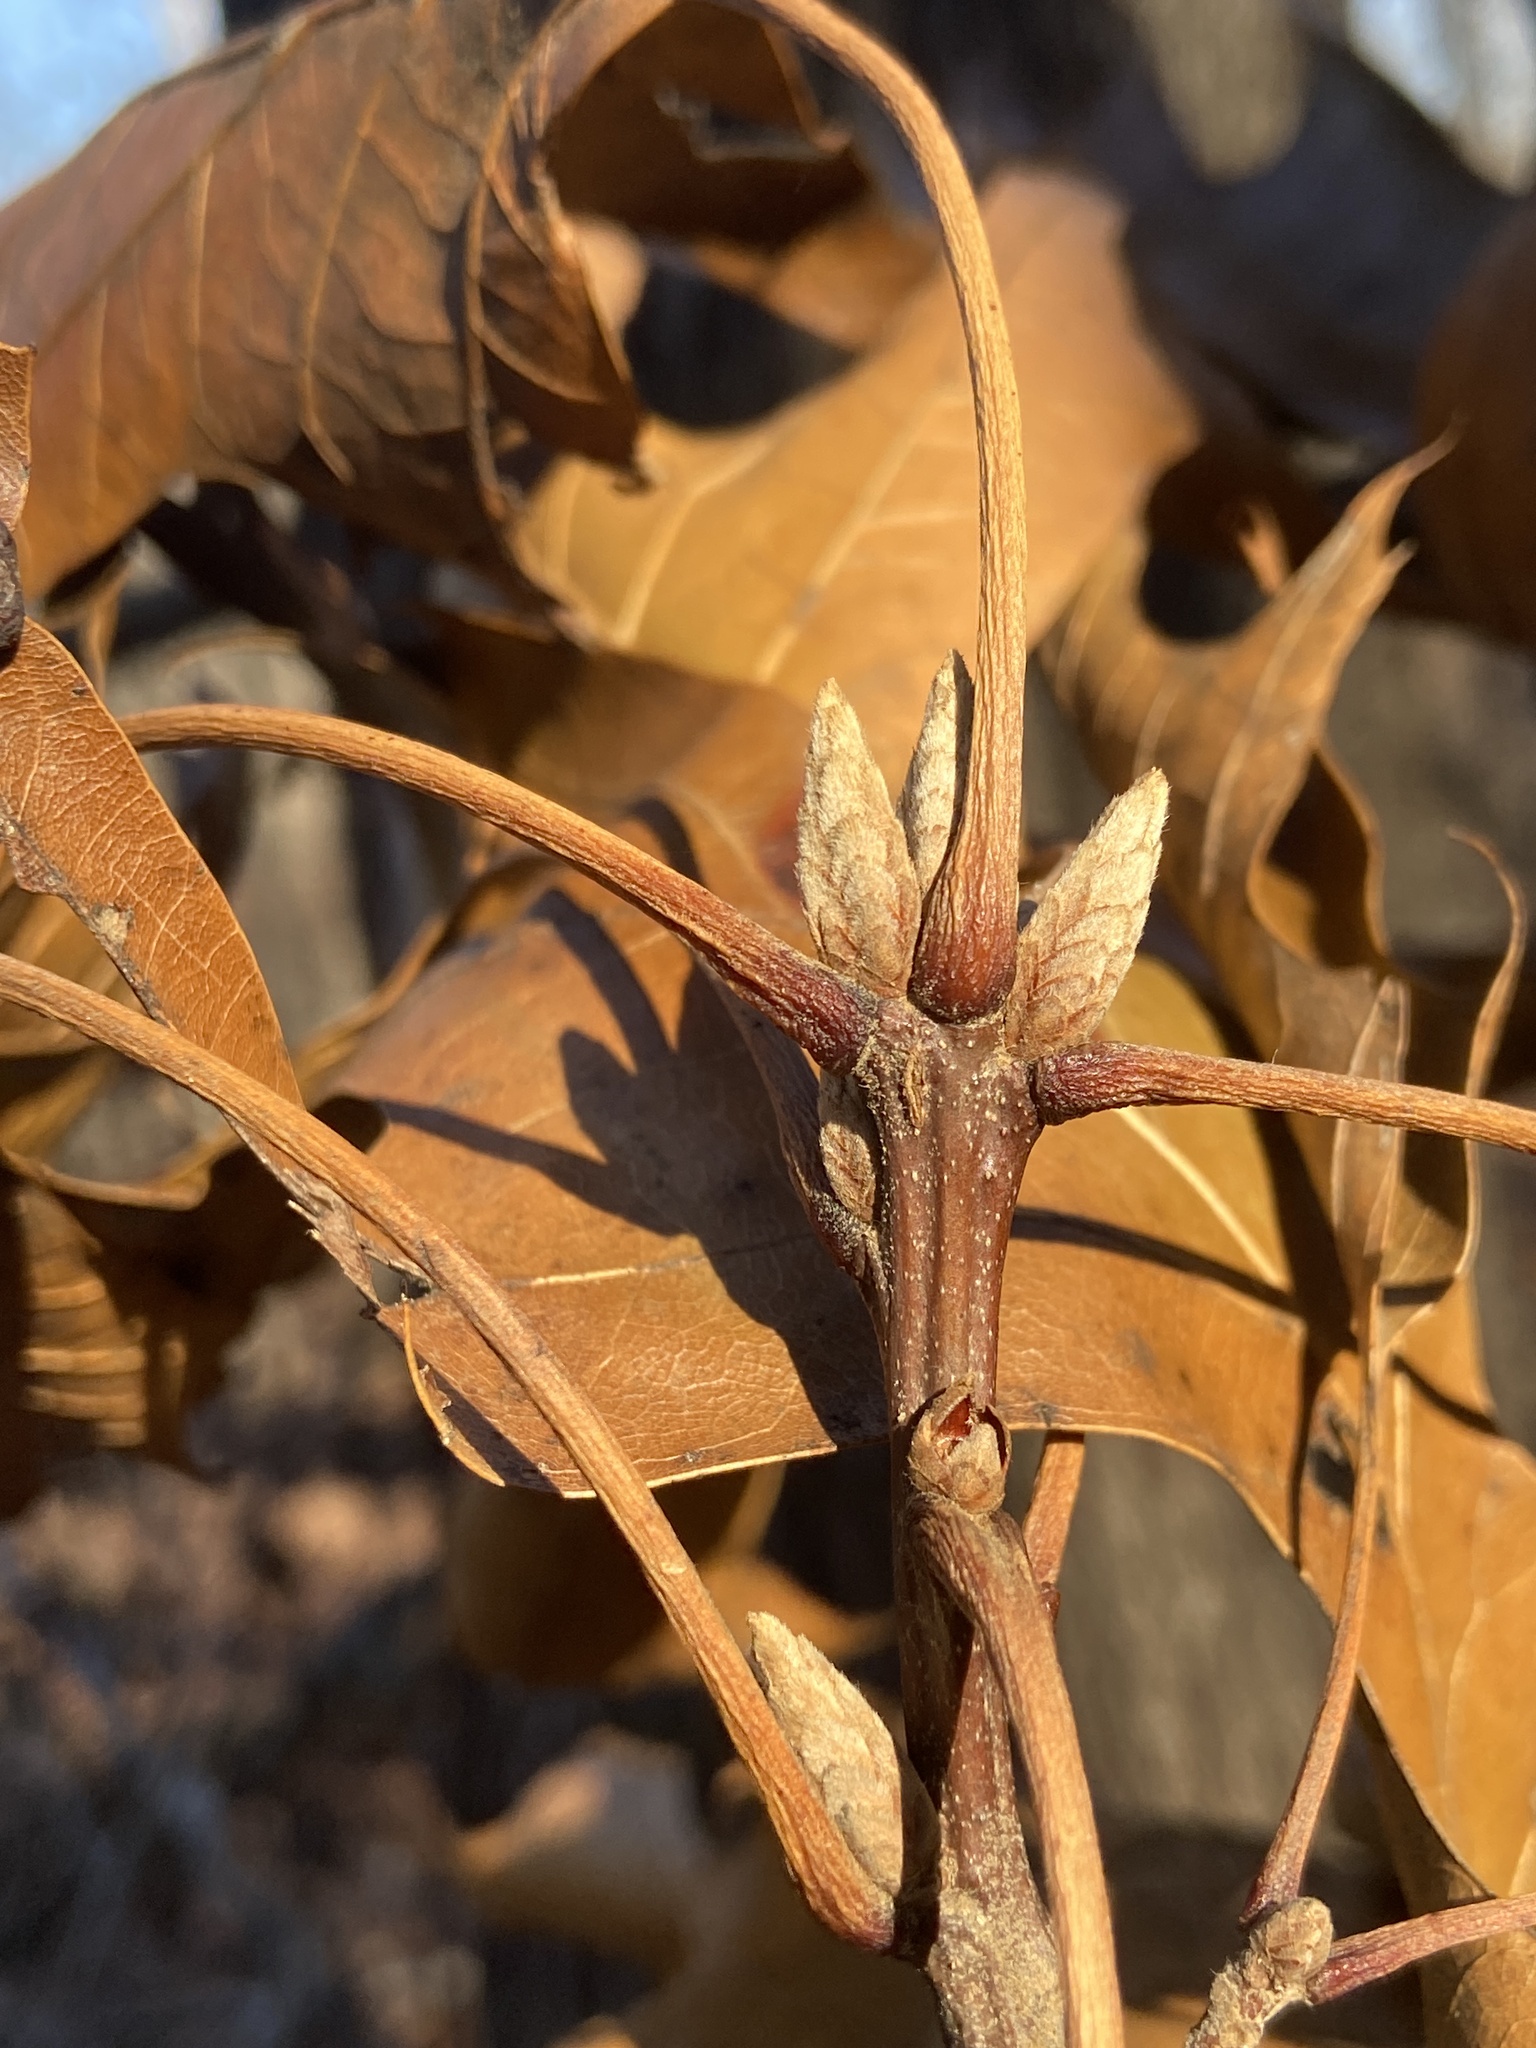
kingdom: Plantae
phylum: Tracheophyta
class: Magnoliopsida
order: Fagales
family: Fagaceae
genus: Quercus
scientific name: Quercus velutina
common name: Black oak
